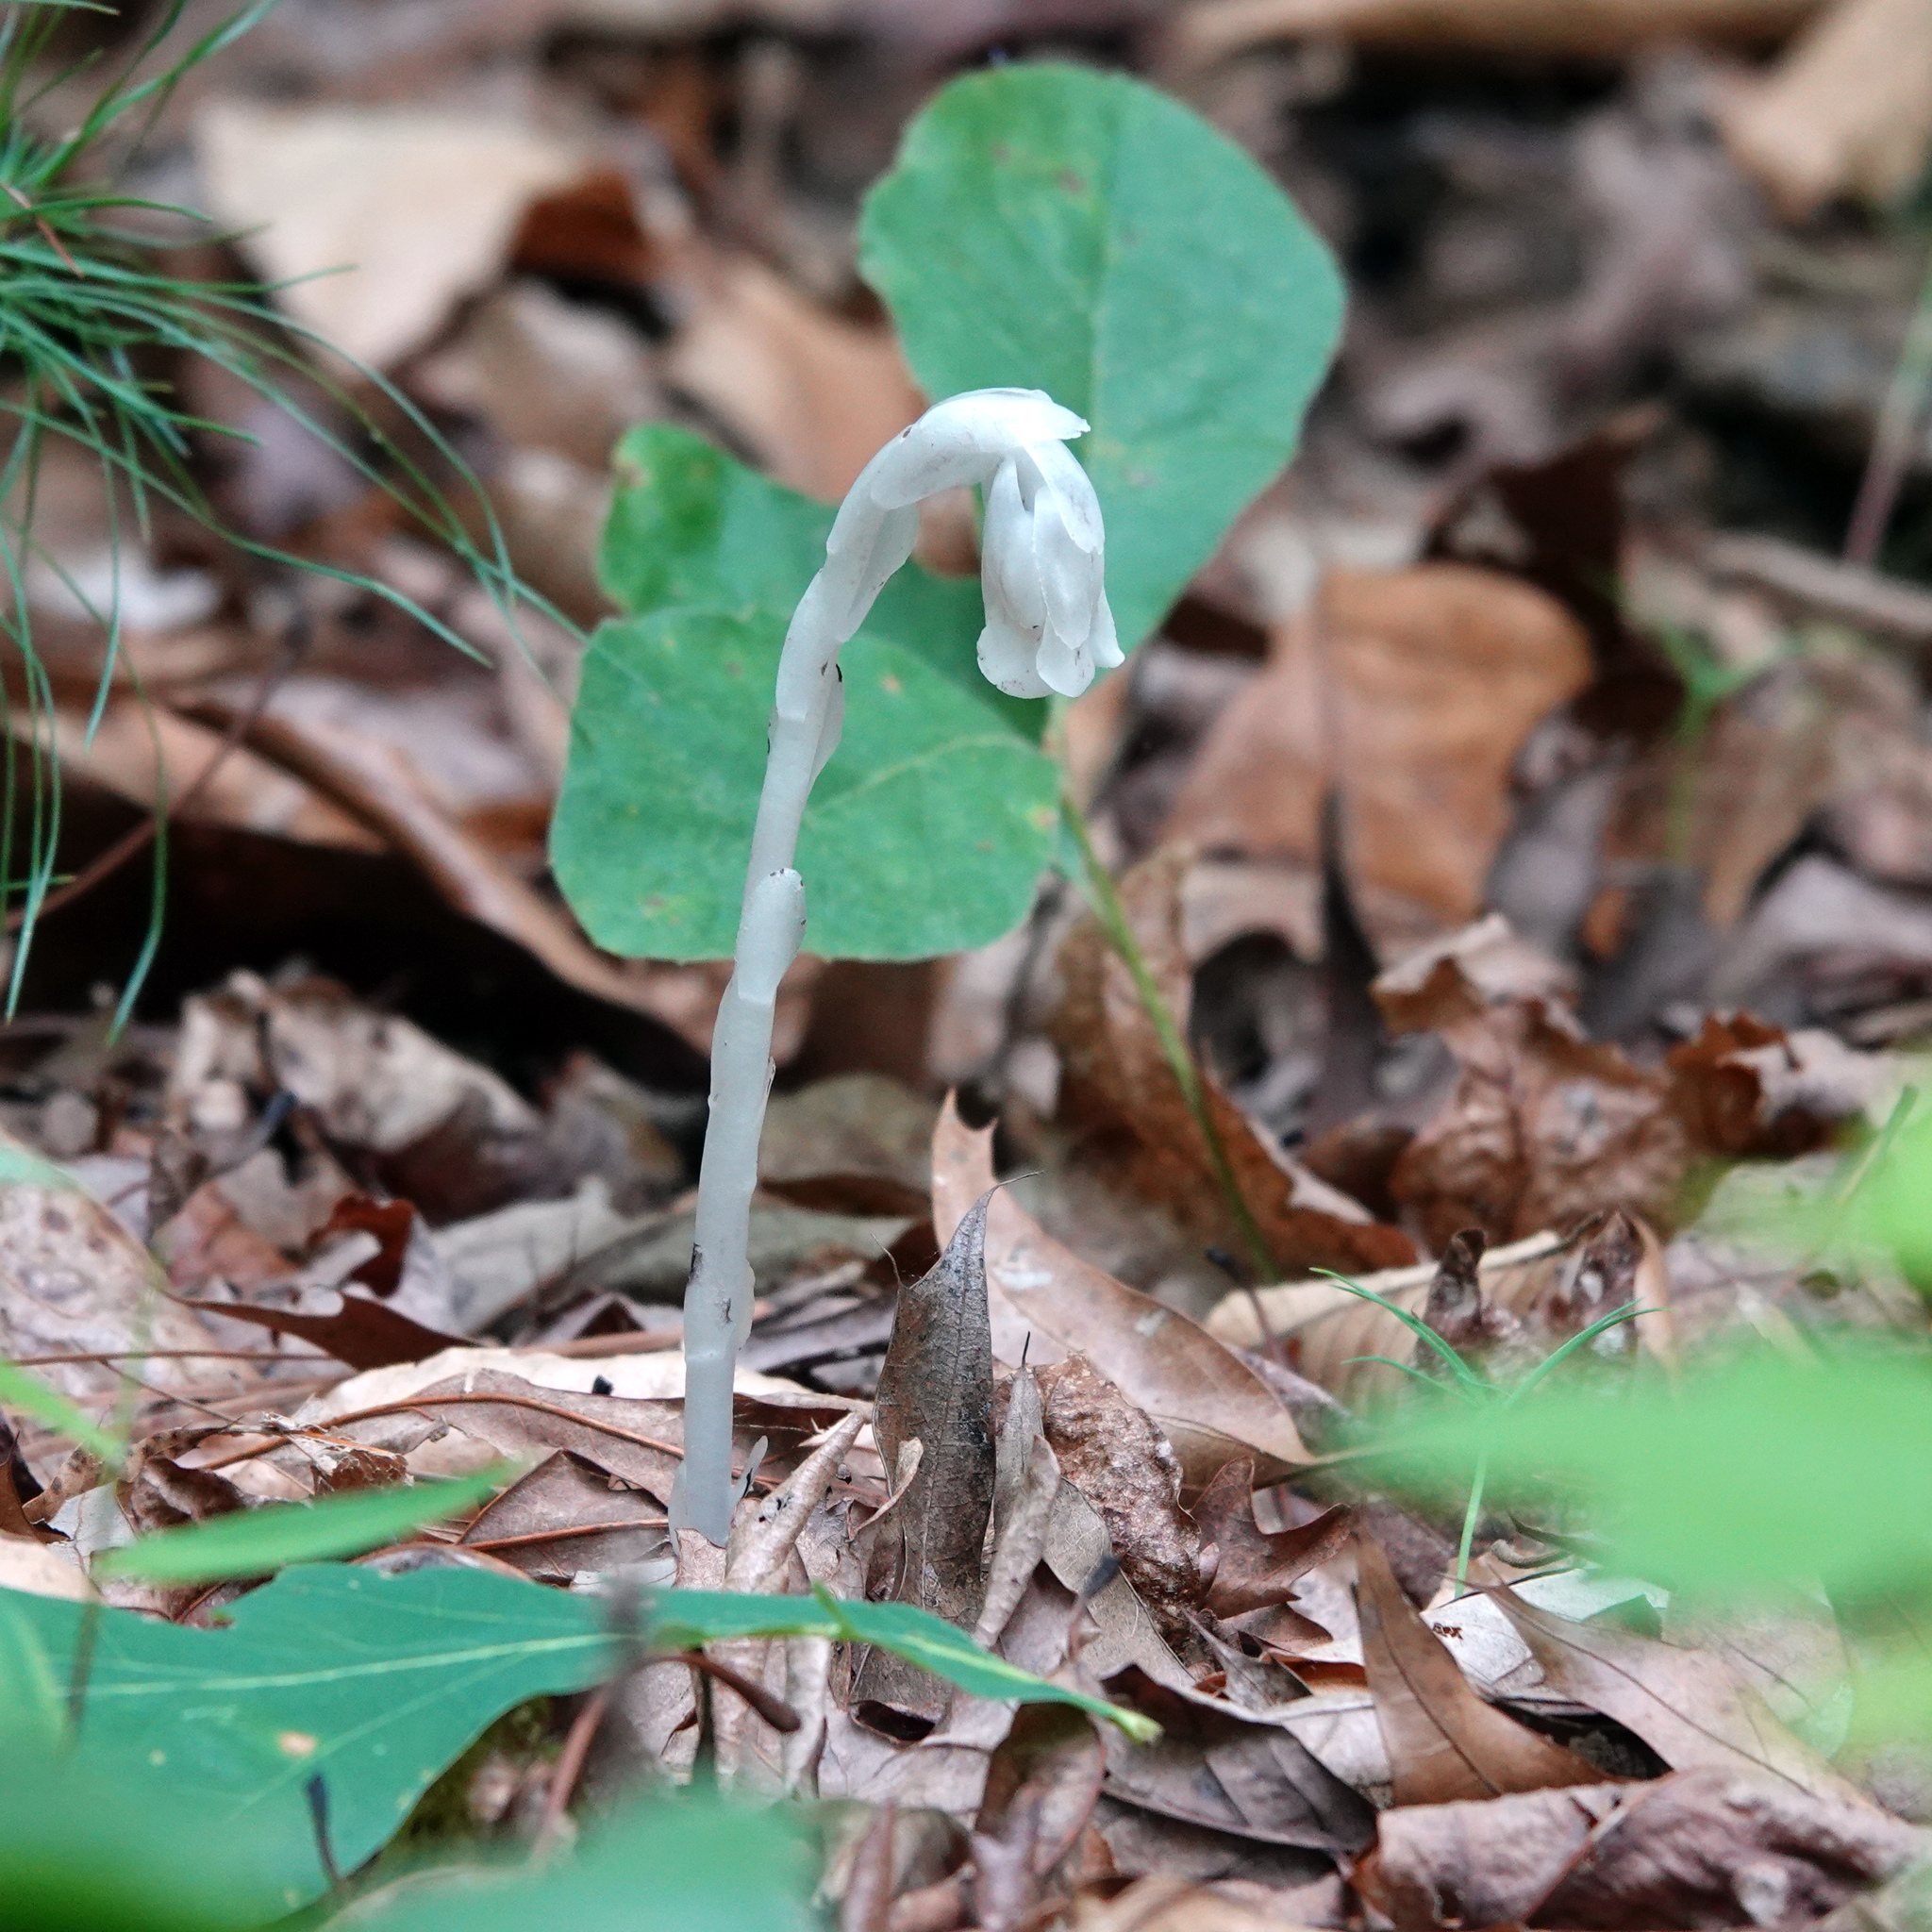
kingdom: Plantae
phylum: Tracheophyta
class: Magnoliopsida
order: Ericales
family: Ericaceae
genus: Monotropa
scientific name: Monotropa uniflora
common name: Convulsion root
